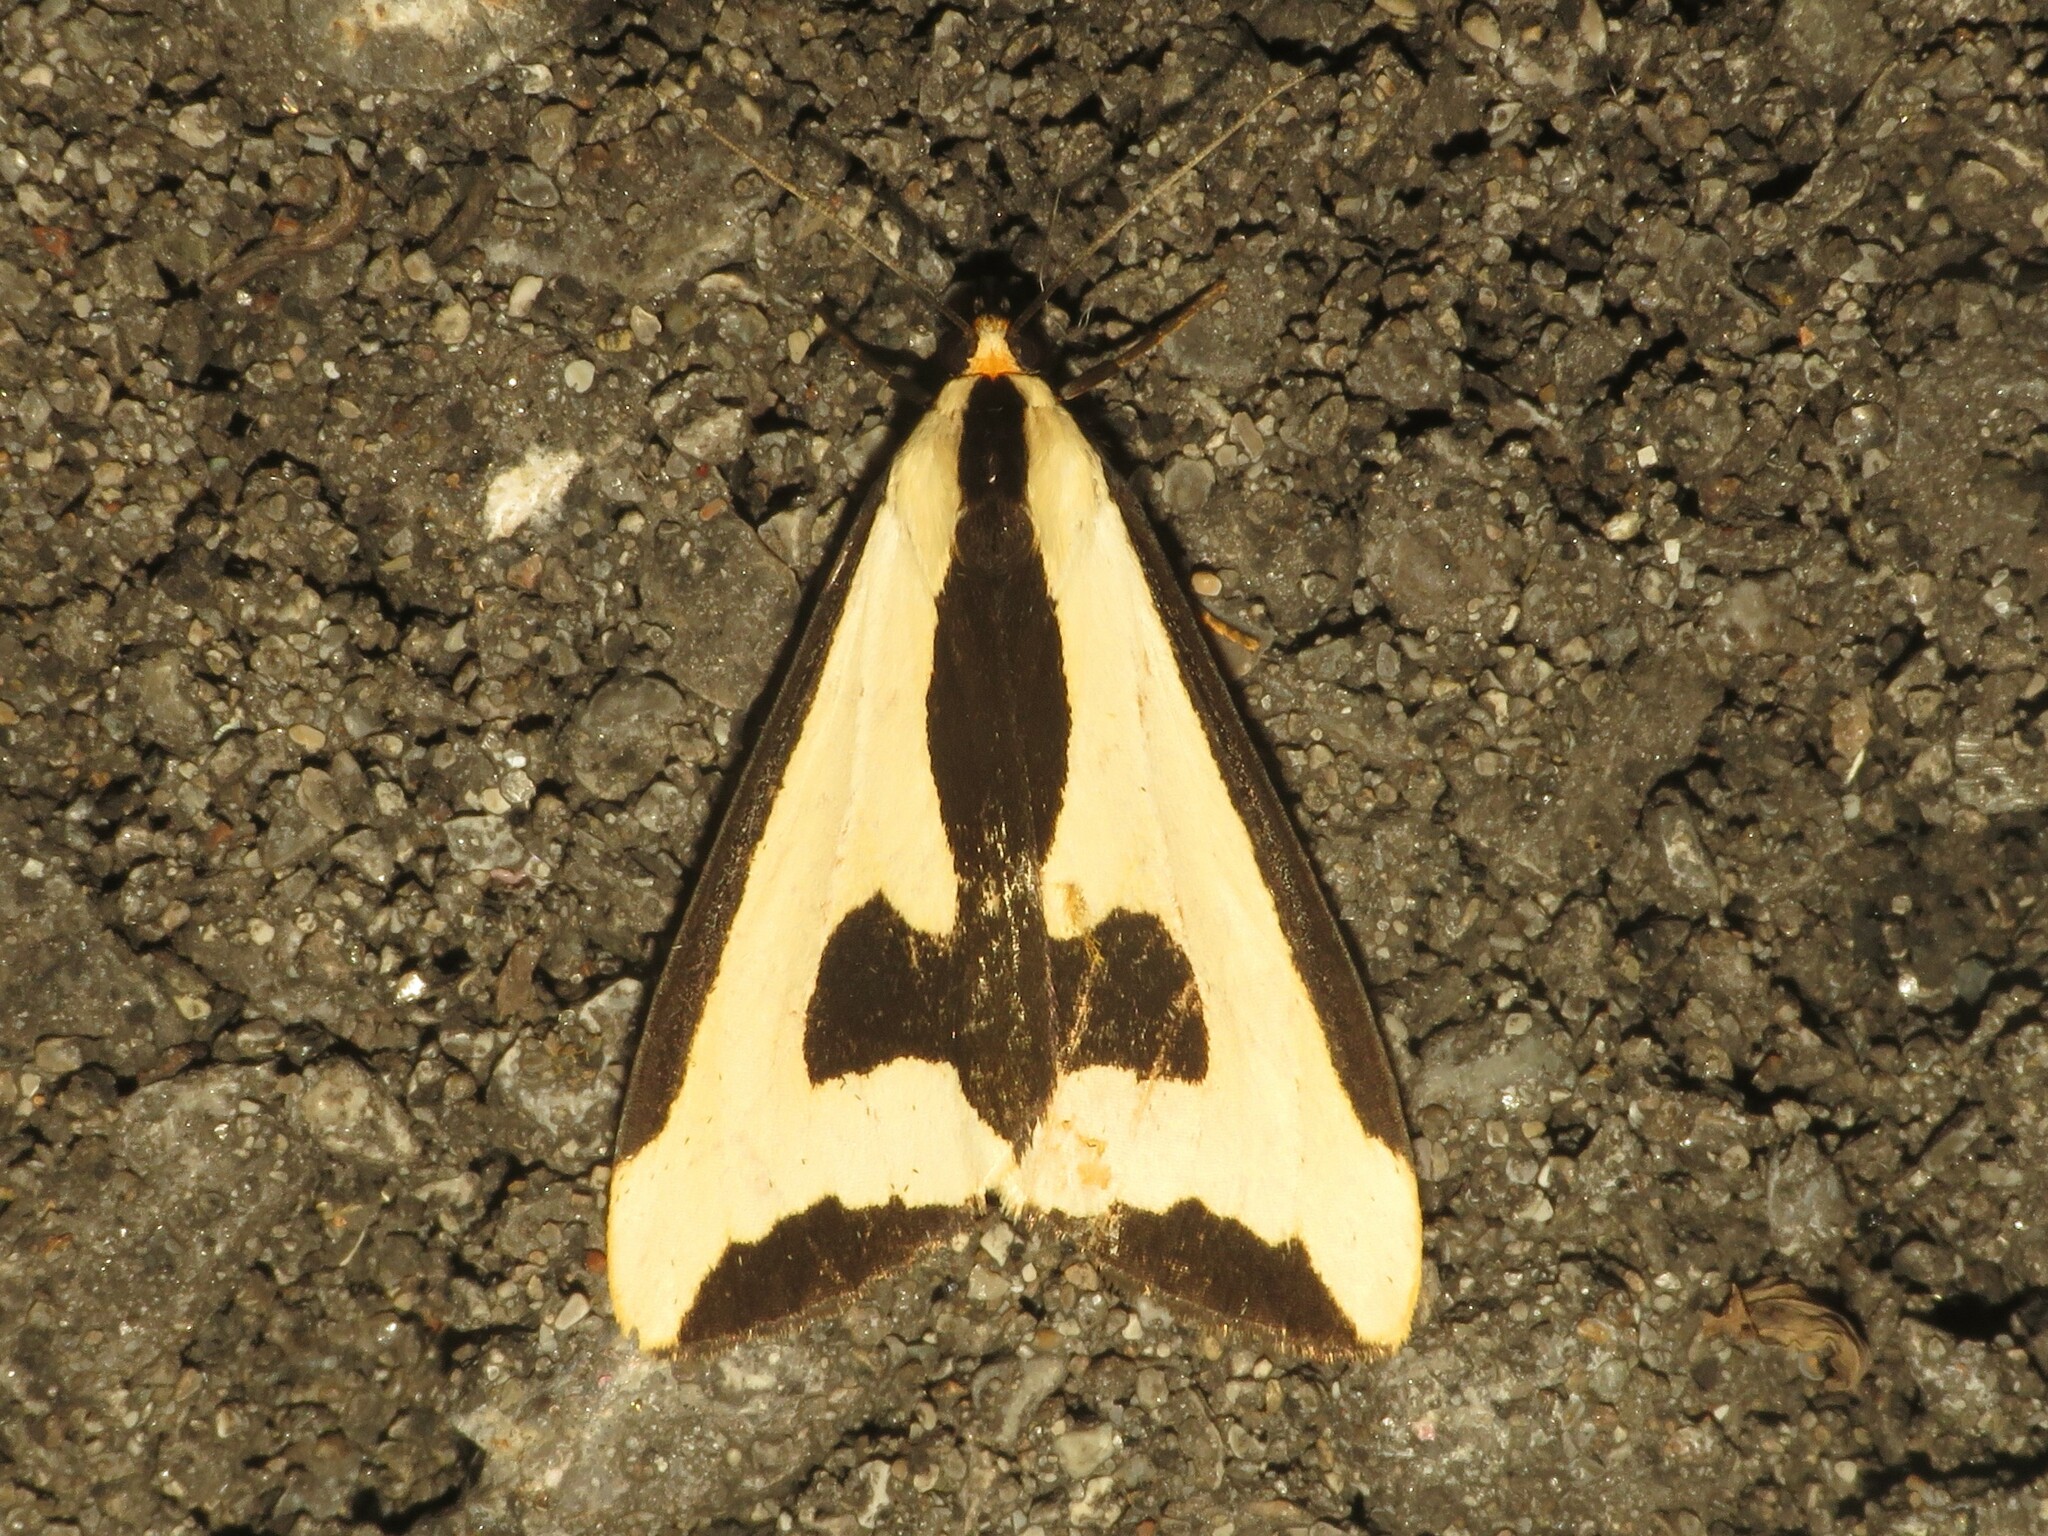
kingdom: Animalia
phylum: Arthropoda
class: Insecta
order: Lepidoptera
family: Erebidae
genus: Haploa
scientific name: Haploa clymene
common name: Clymene moth
